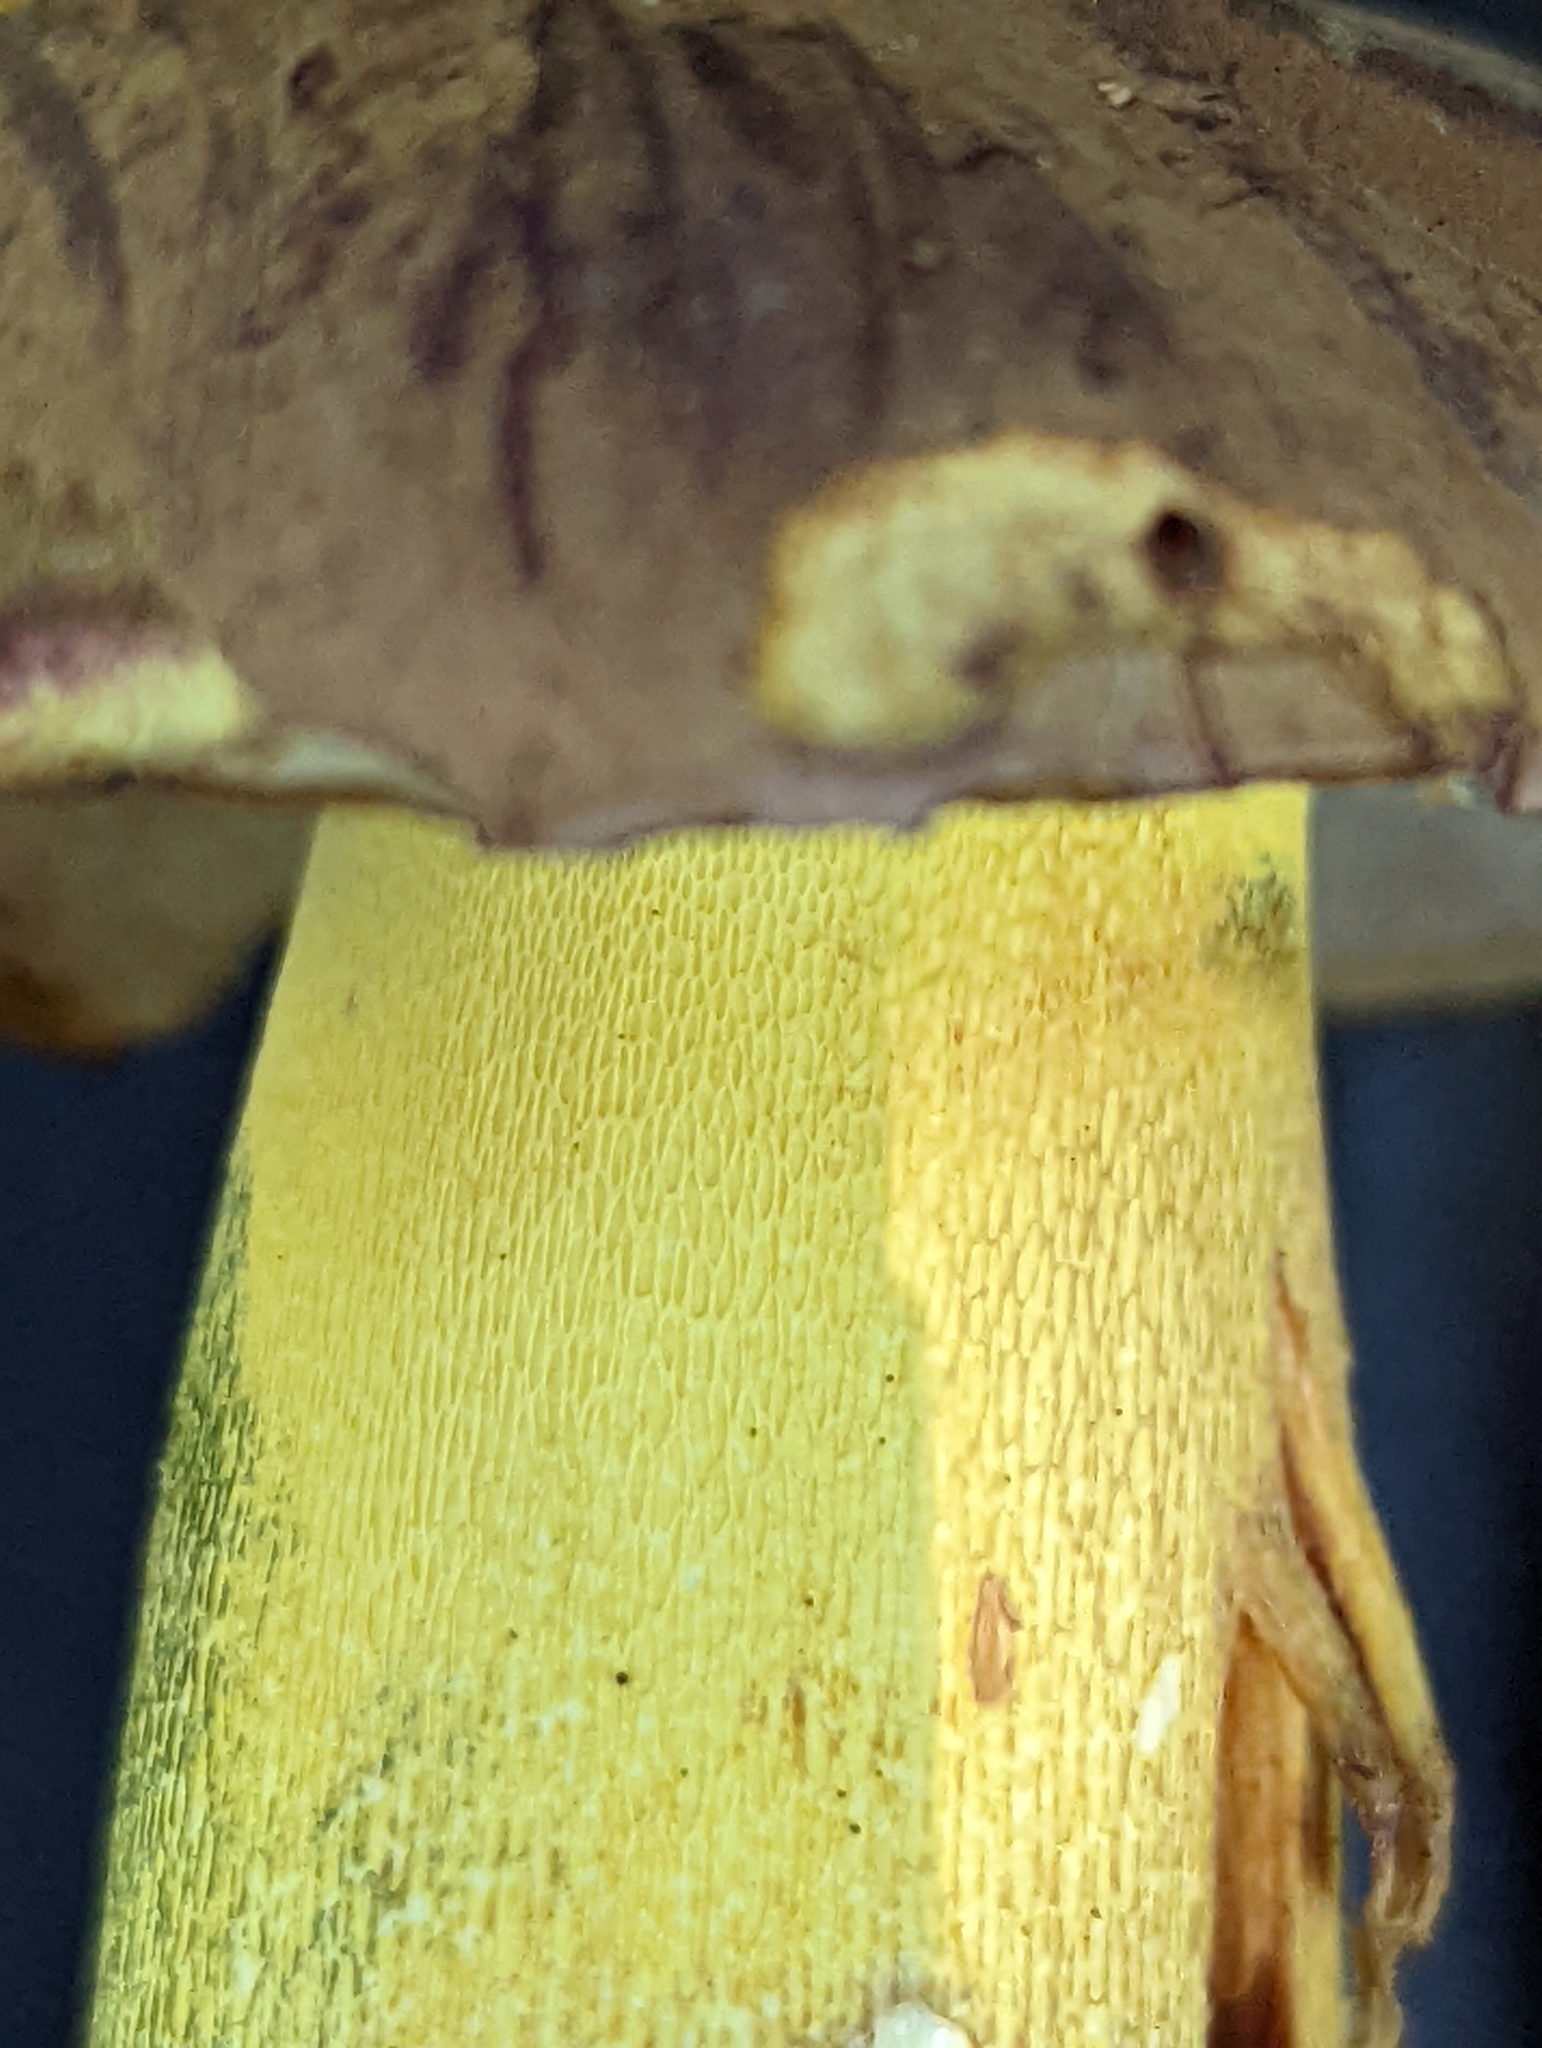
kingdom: Fungi
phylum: Basidiomycota
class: Agaricomycetes
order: Boletales
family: Boletaceae
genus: Butyriboletus
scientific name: Butyriboletus brunneus
